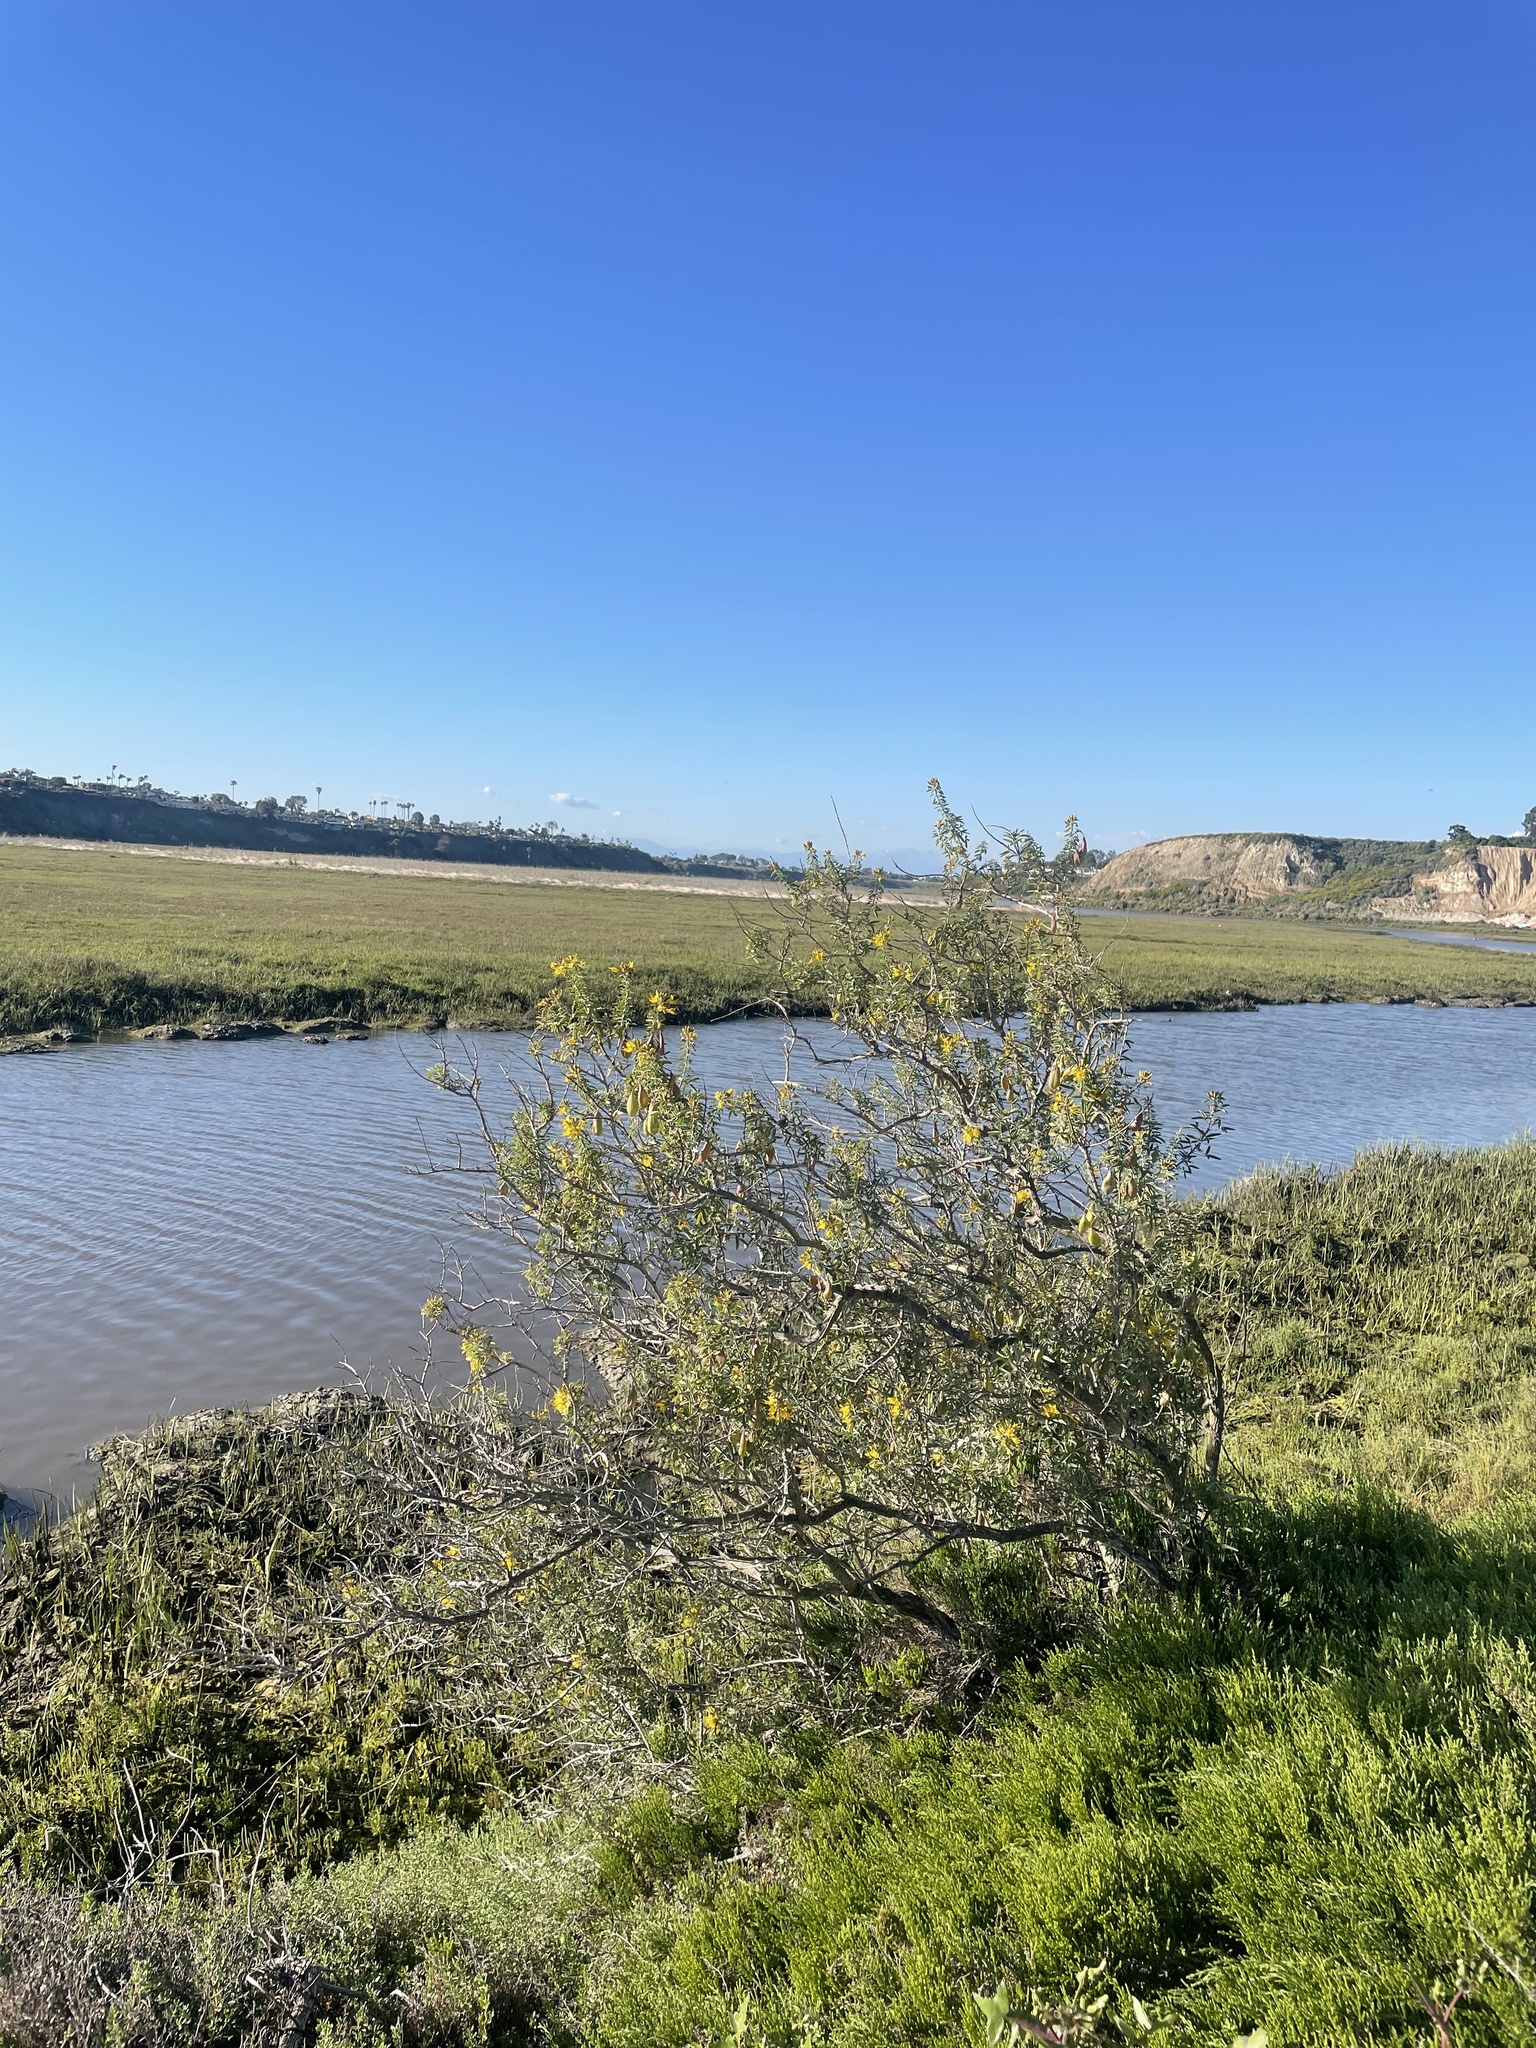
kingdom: Plantae
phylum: Tracheophyta
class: Magnoliopsida
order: Brassicales
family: Cleomaceae
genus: Cleomella
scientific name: Cleomella arborea
